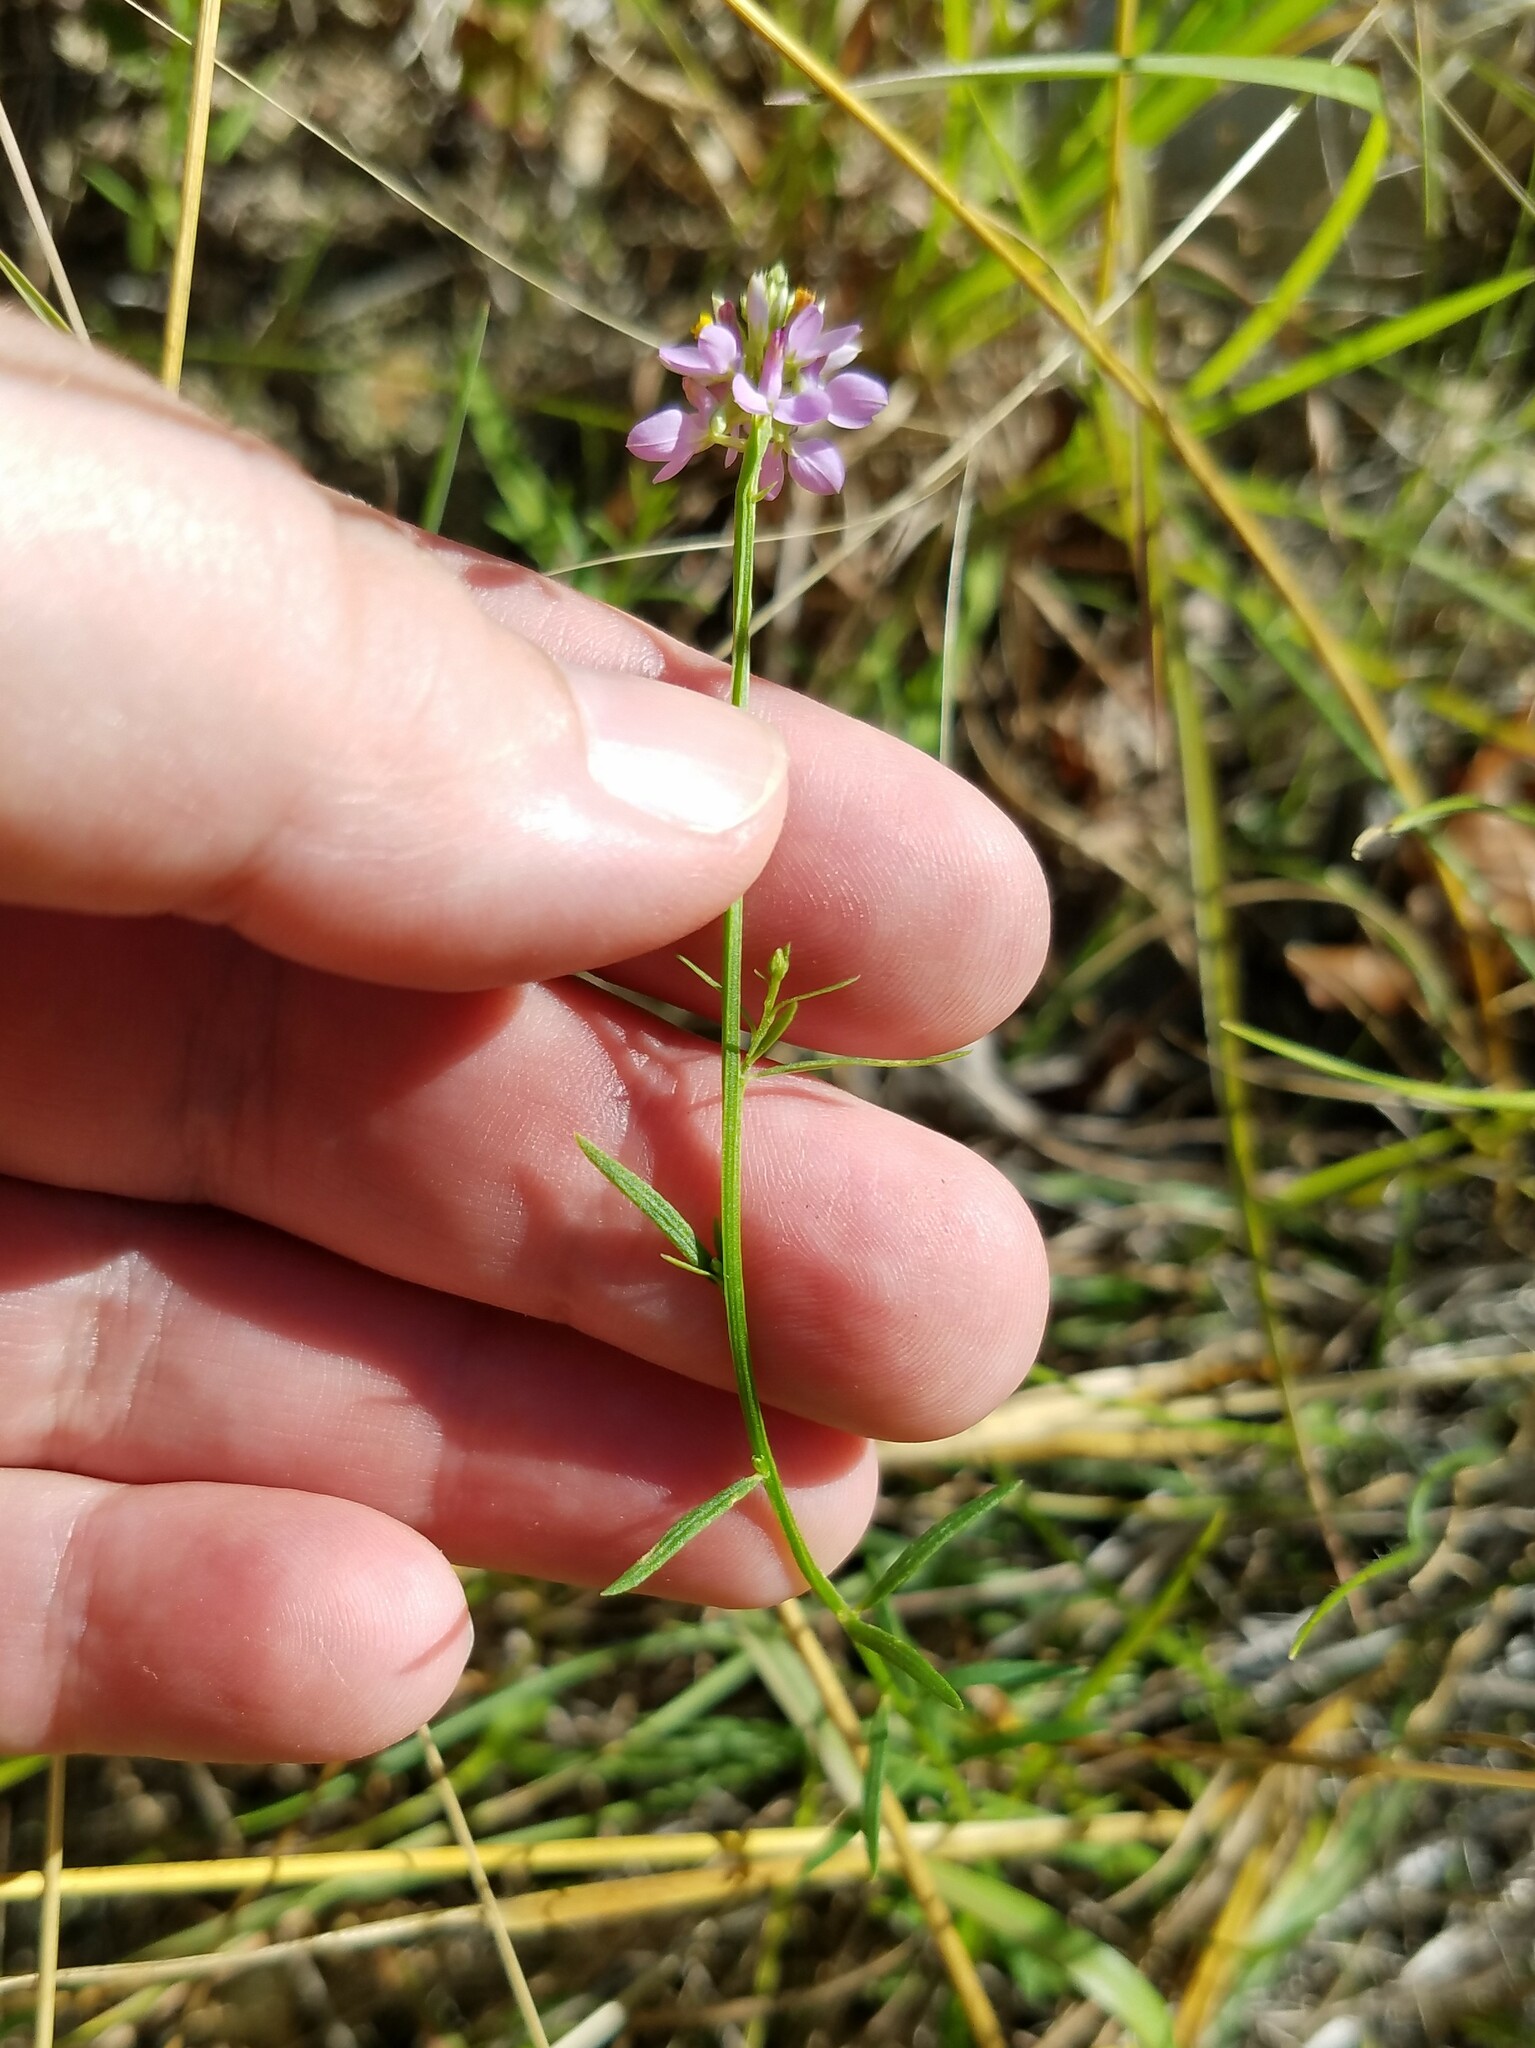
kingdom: Plantae
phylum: Tracheophyta
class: Magnoliopsida
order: Fabales
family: Polygalaceae
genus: Polygala
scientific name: Polygala curtissii
